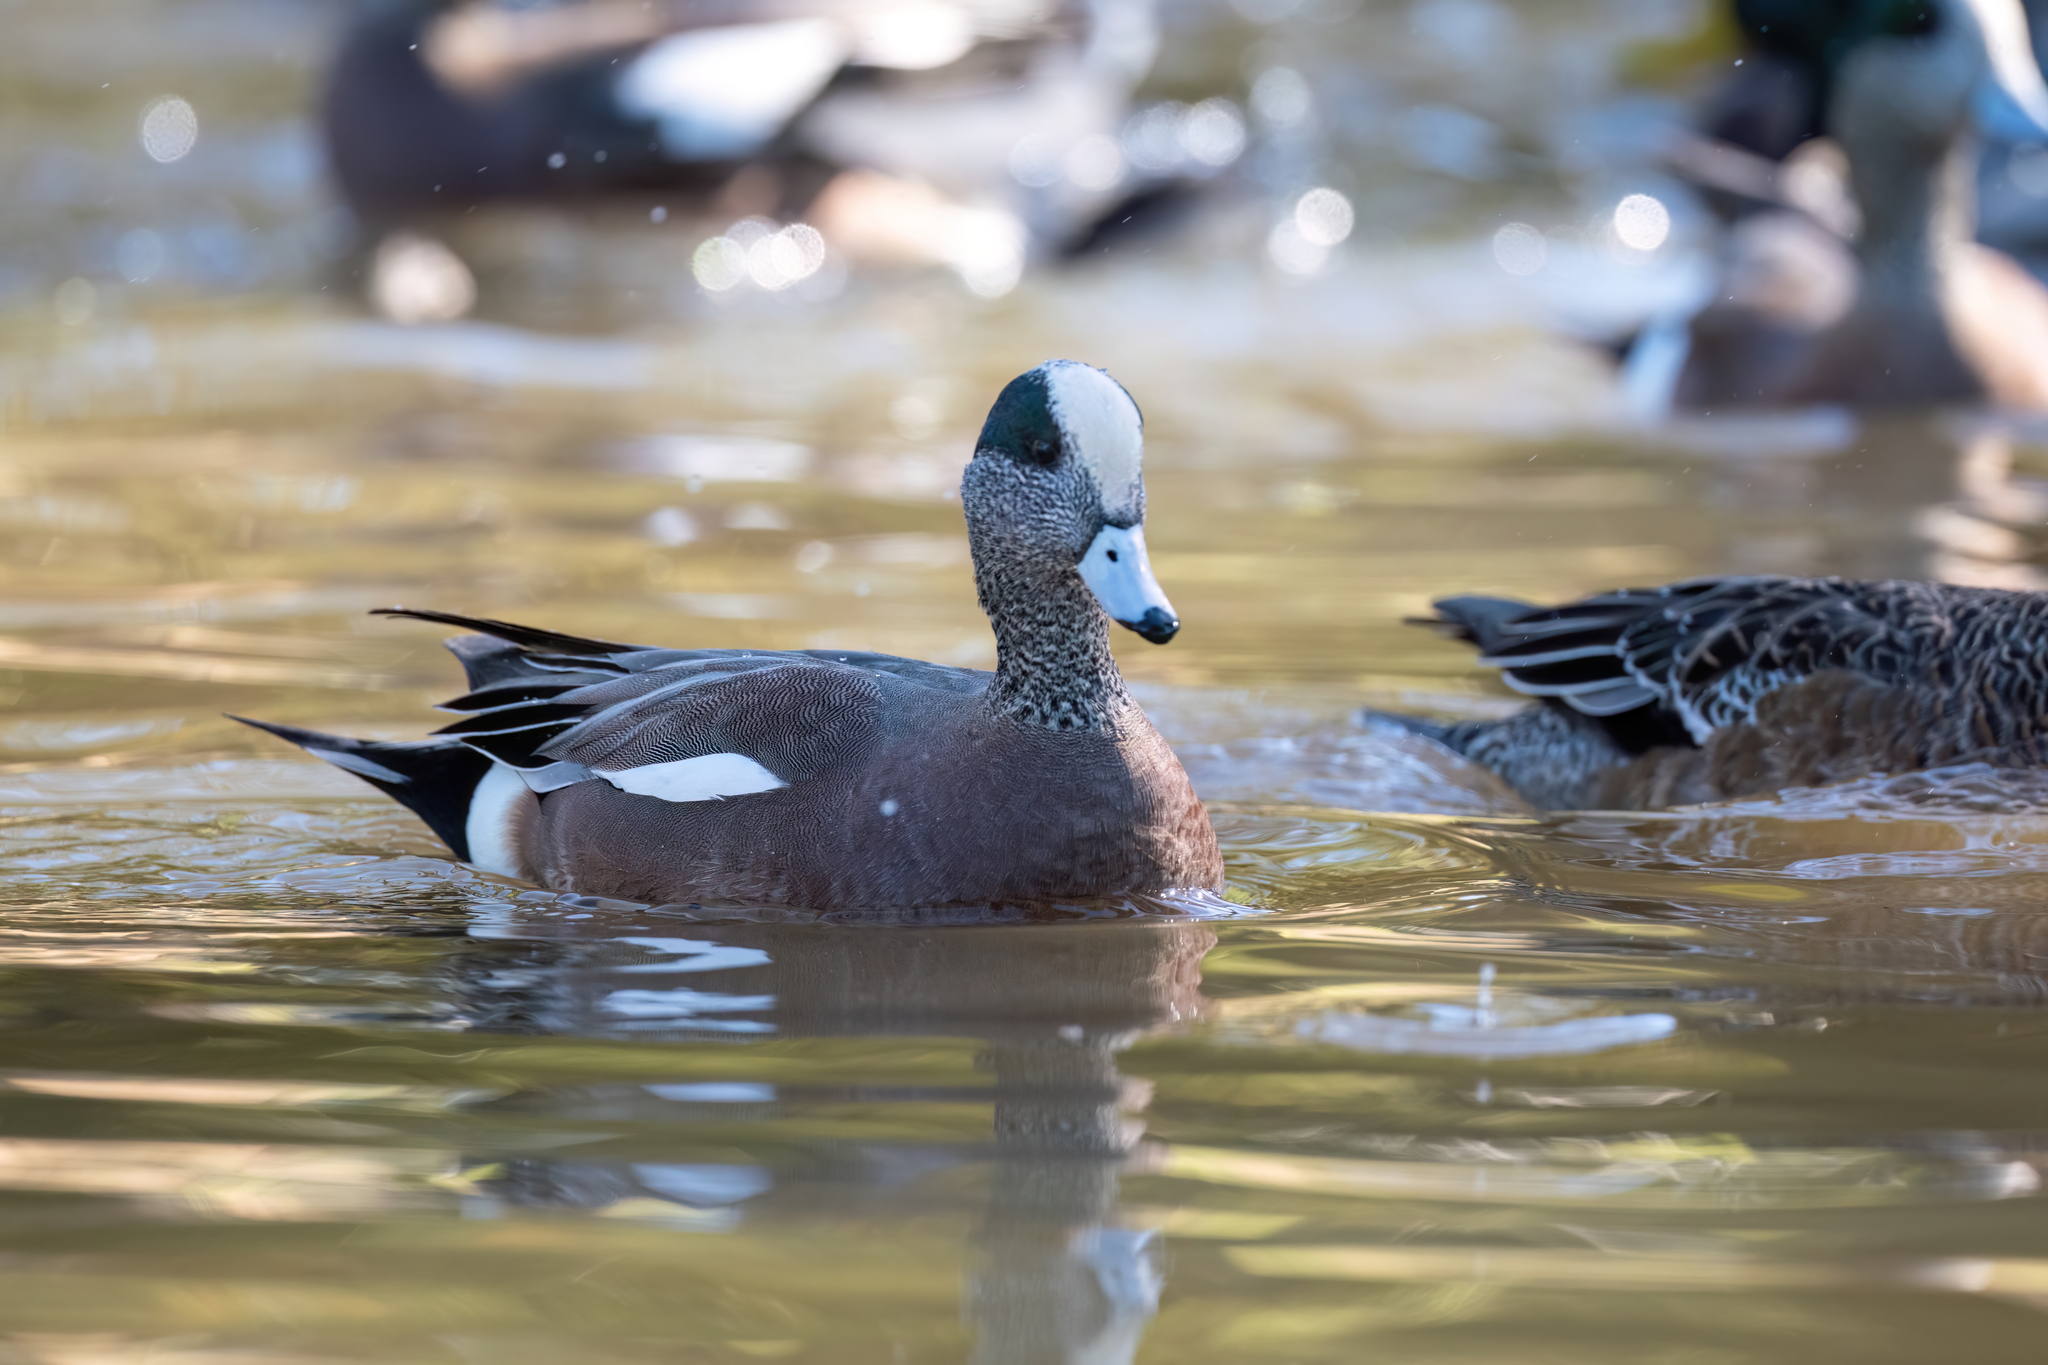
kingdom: Animalia
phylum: Chordata
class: Aves
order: Anseriformes
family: Anatidae
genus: Mareca
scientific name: Mareca americana
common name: American wigeon
